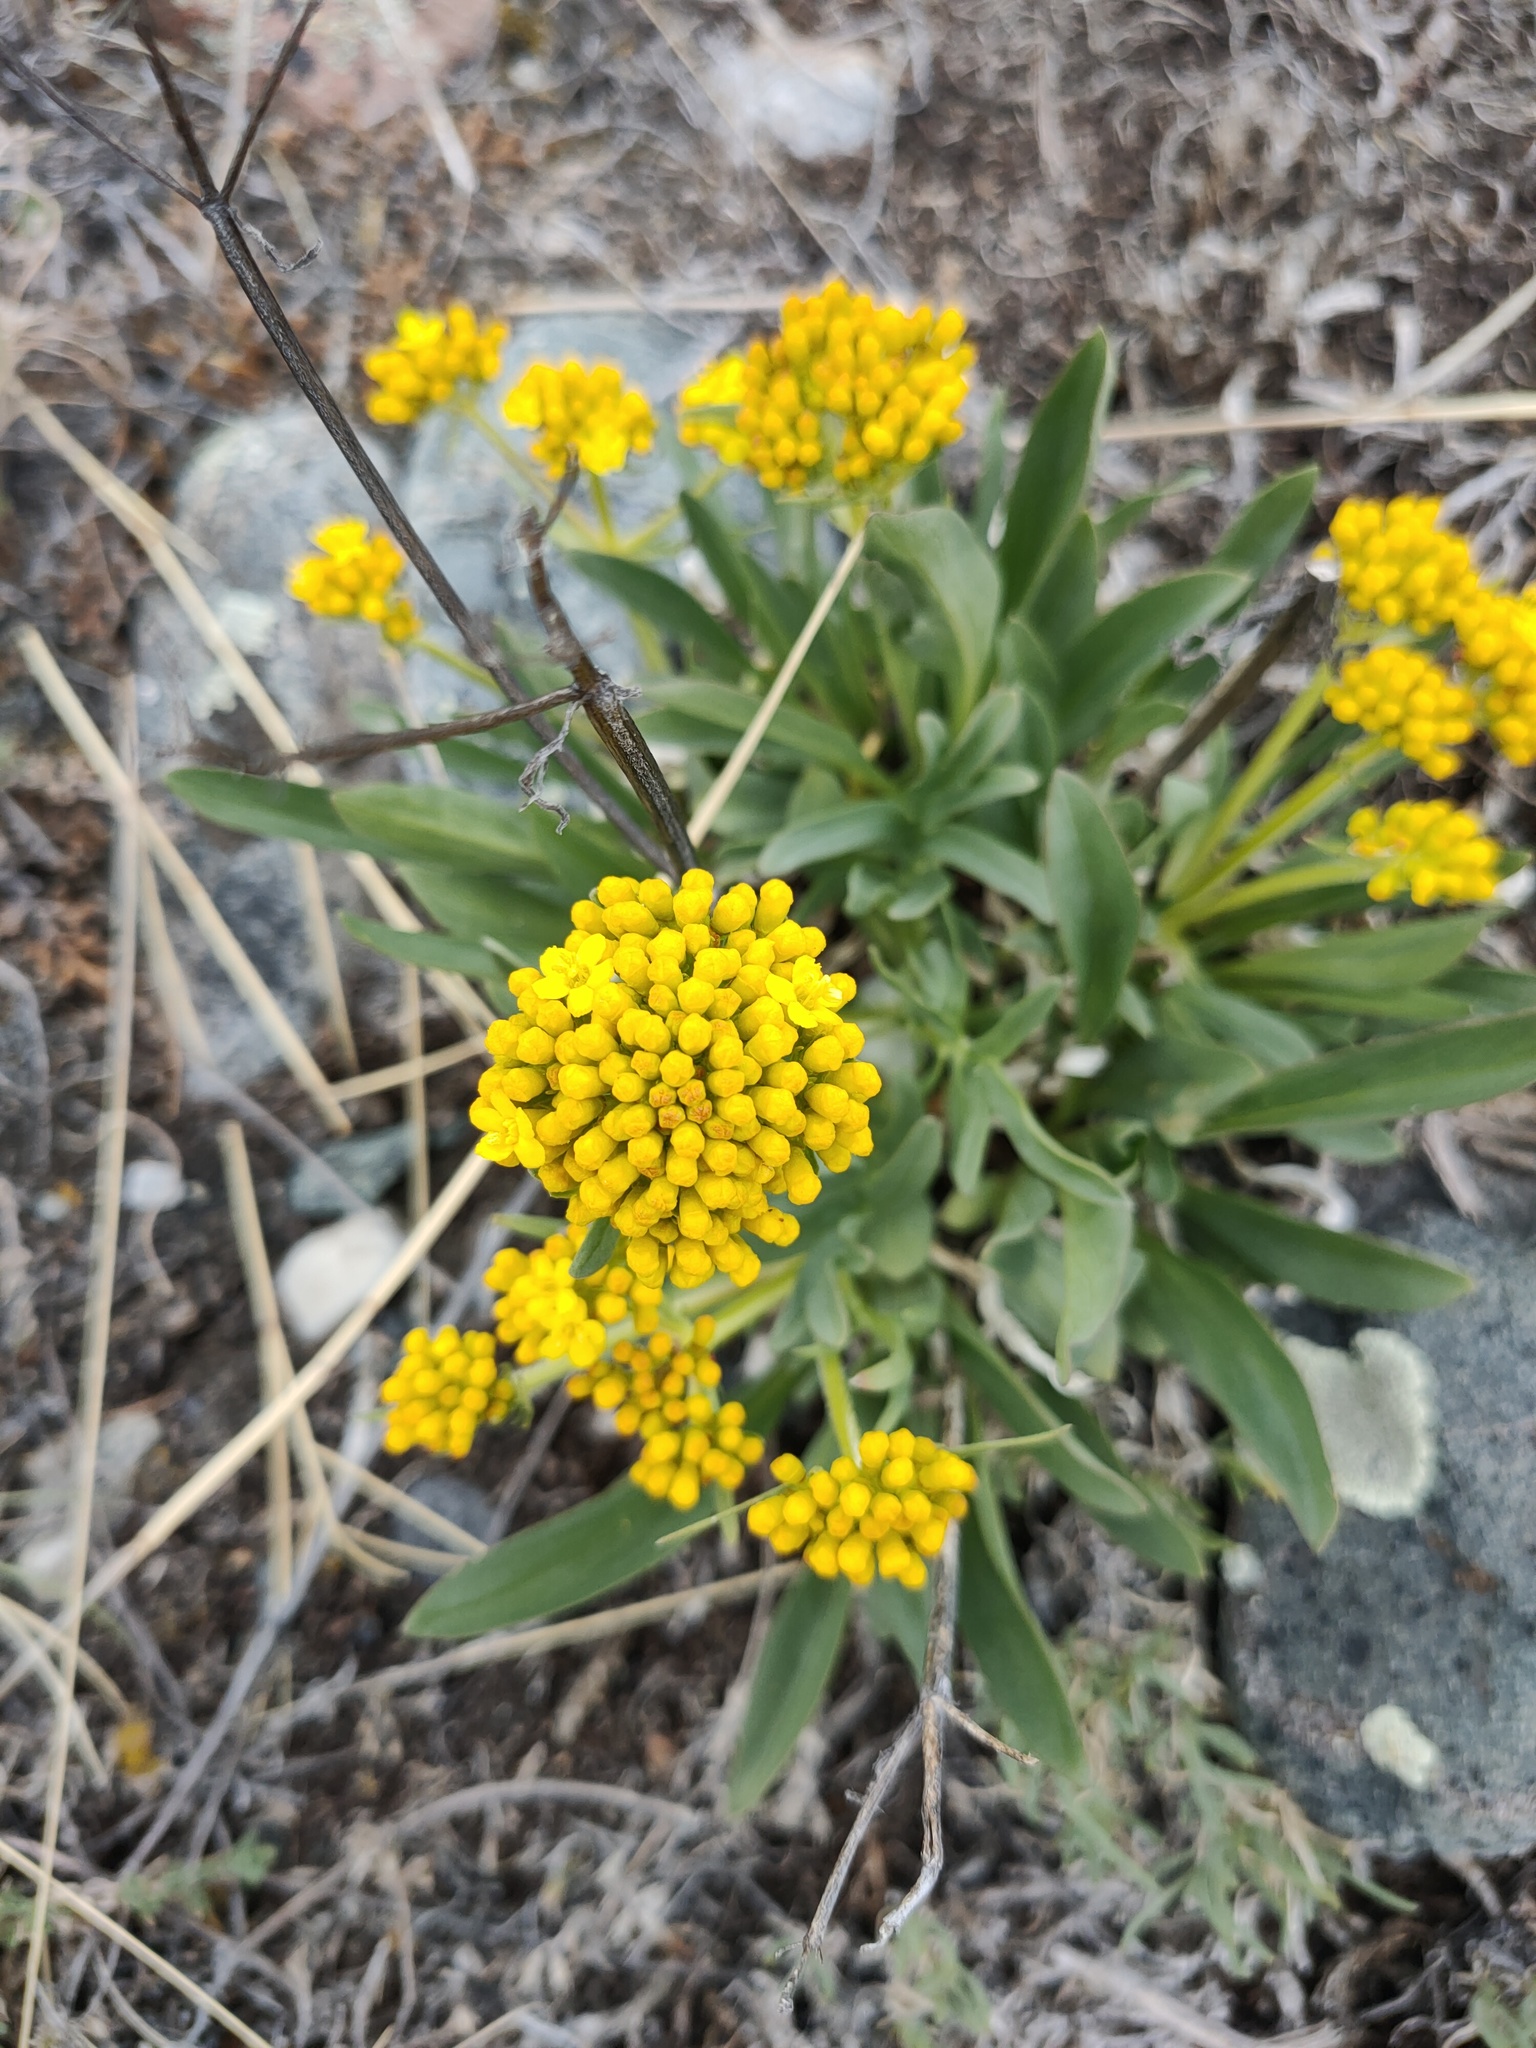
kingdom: Plantae
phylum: Tracheophyta
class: Magnoliopsida
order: Dipsacales
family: Caprifoliaceae
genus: Patrinia
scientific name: Patrinia sibirica
